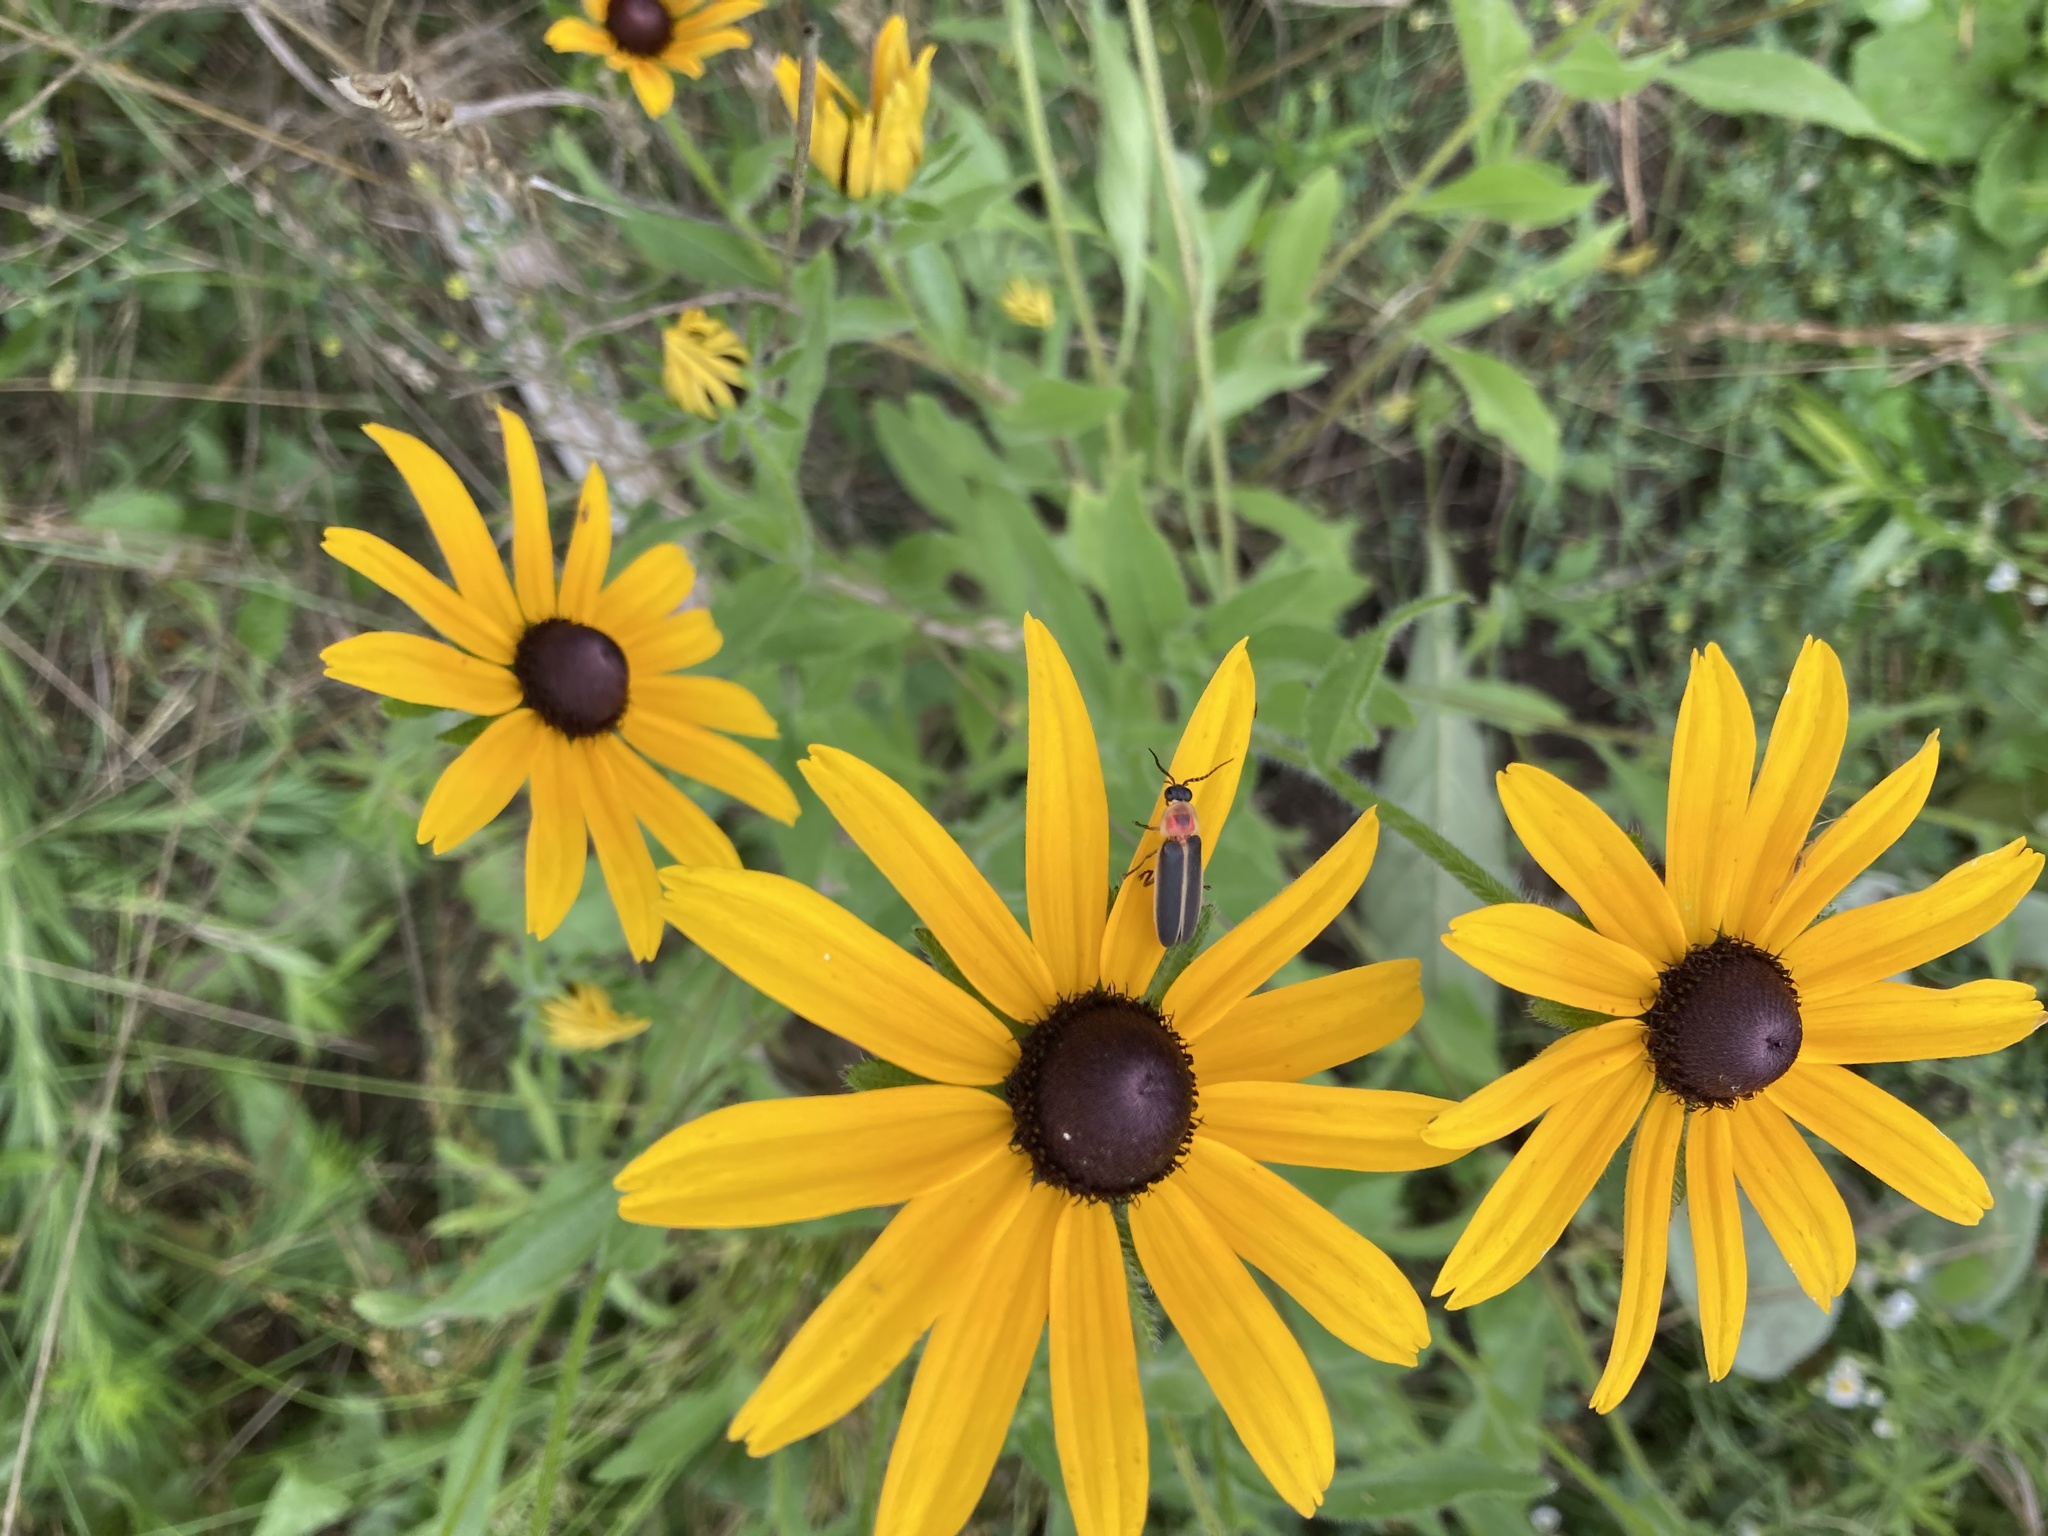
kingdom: Plantae
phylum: Tracheophyta
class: Magnoliopsida
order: Asterales
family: Asteraceae
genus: Rudbeckia
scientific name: Rudbeckia hirta
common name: Black-eyed-susan
